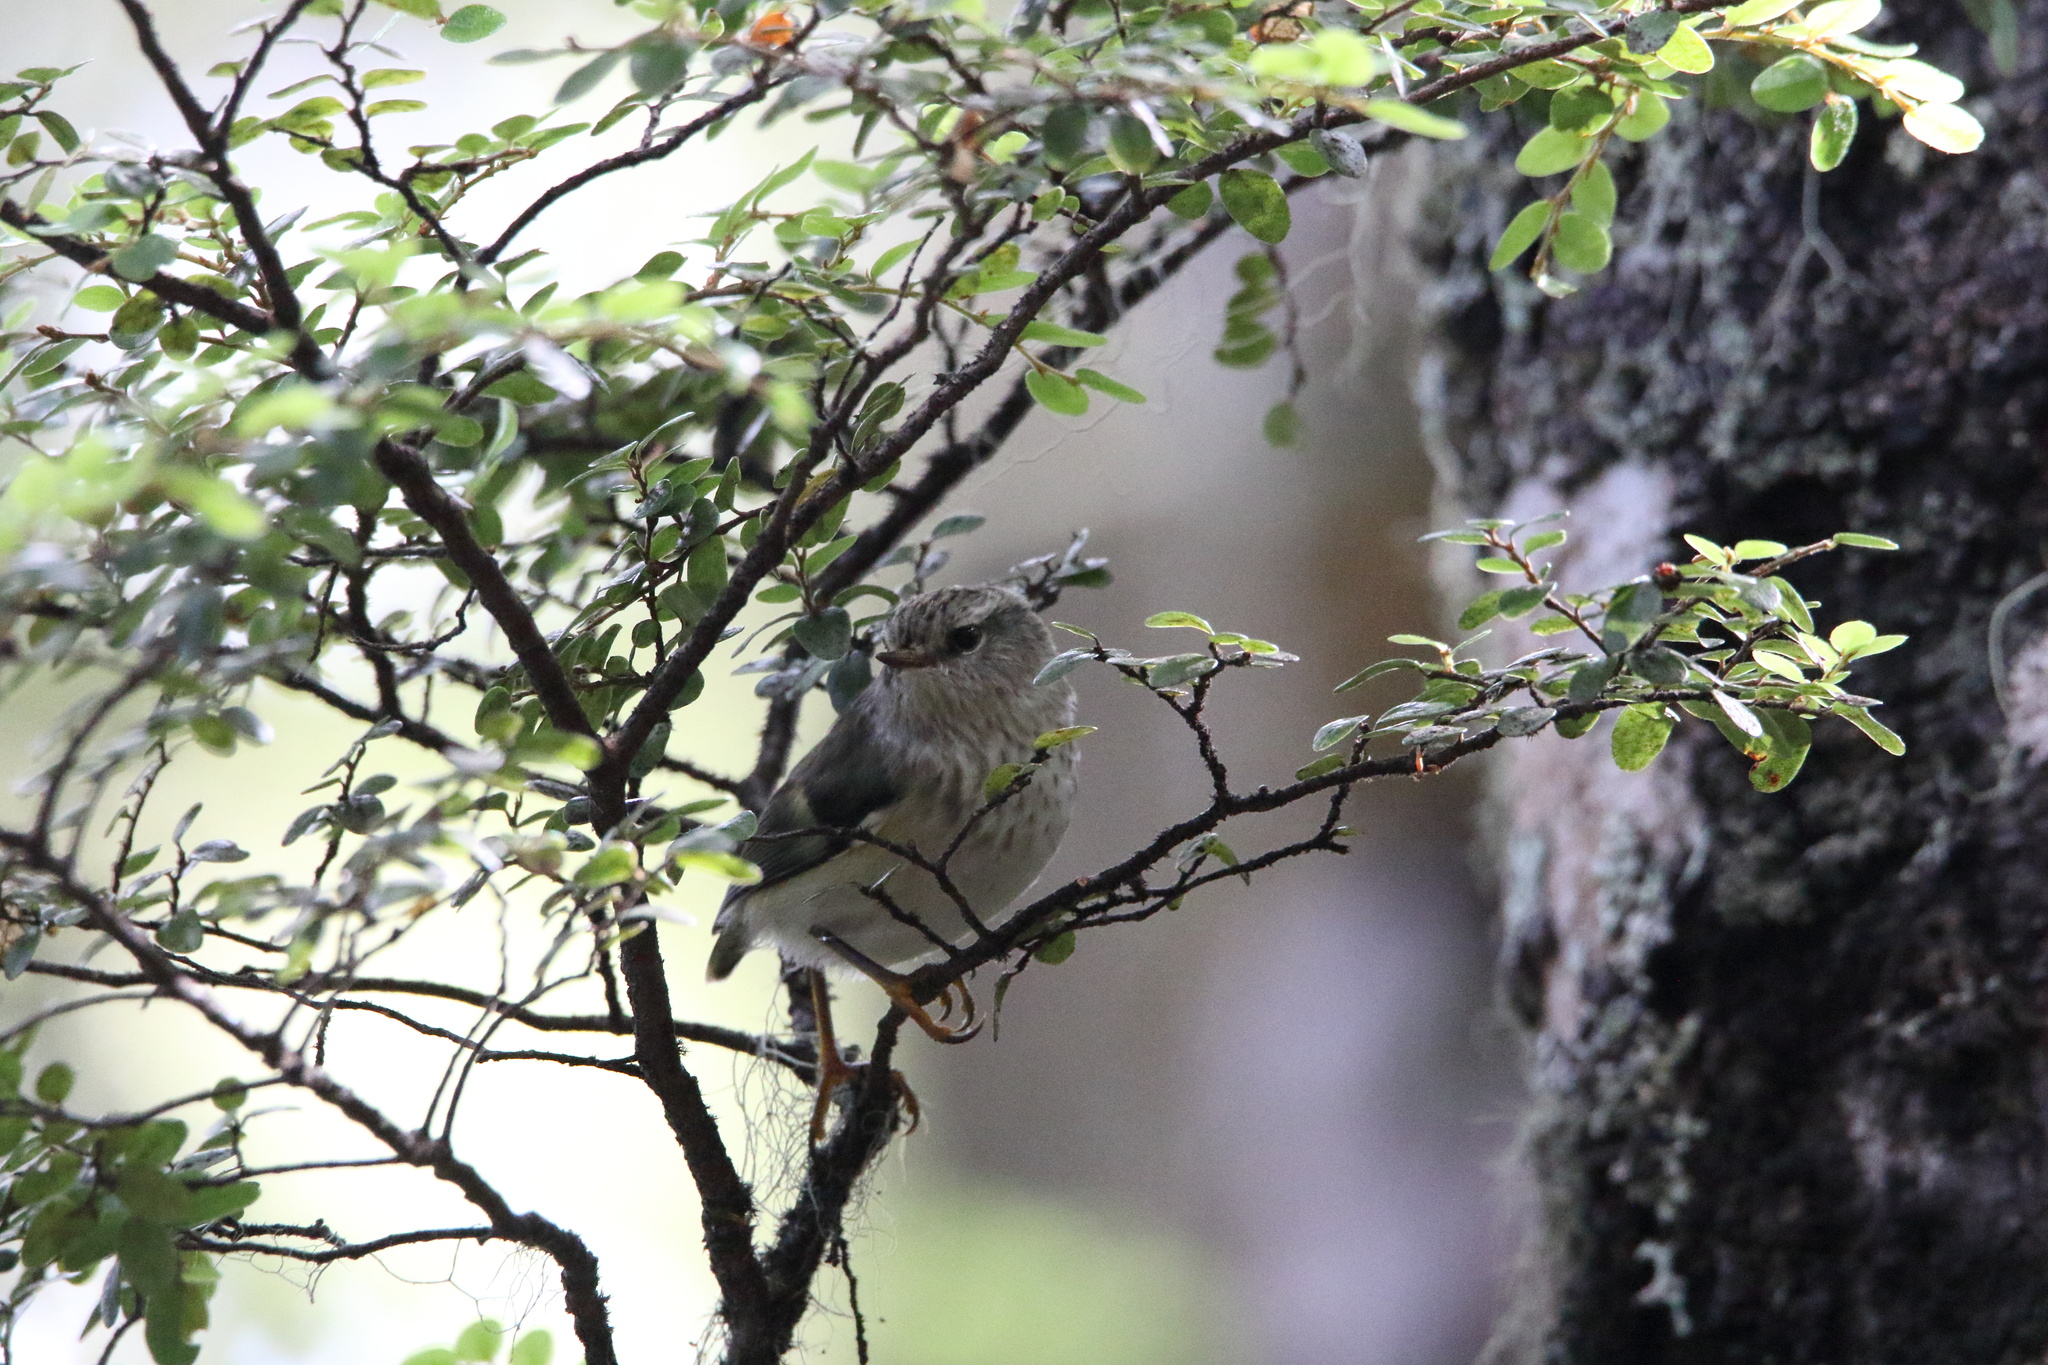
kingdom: Animalia
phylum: Chordata
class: Aves
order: Passeriformes
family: Acanthisittidae
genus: Acanthisitta
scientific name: Acanthisitta chloris
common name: Rifleman
